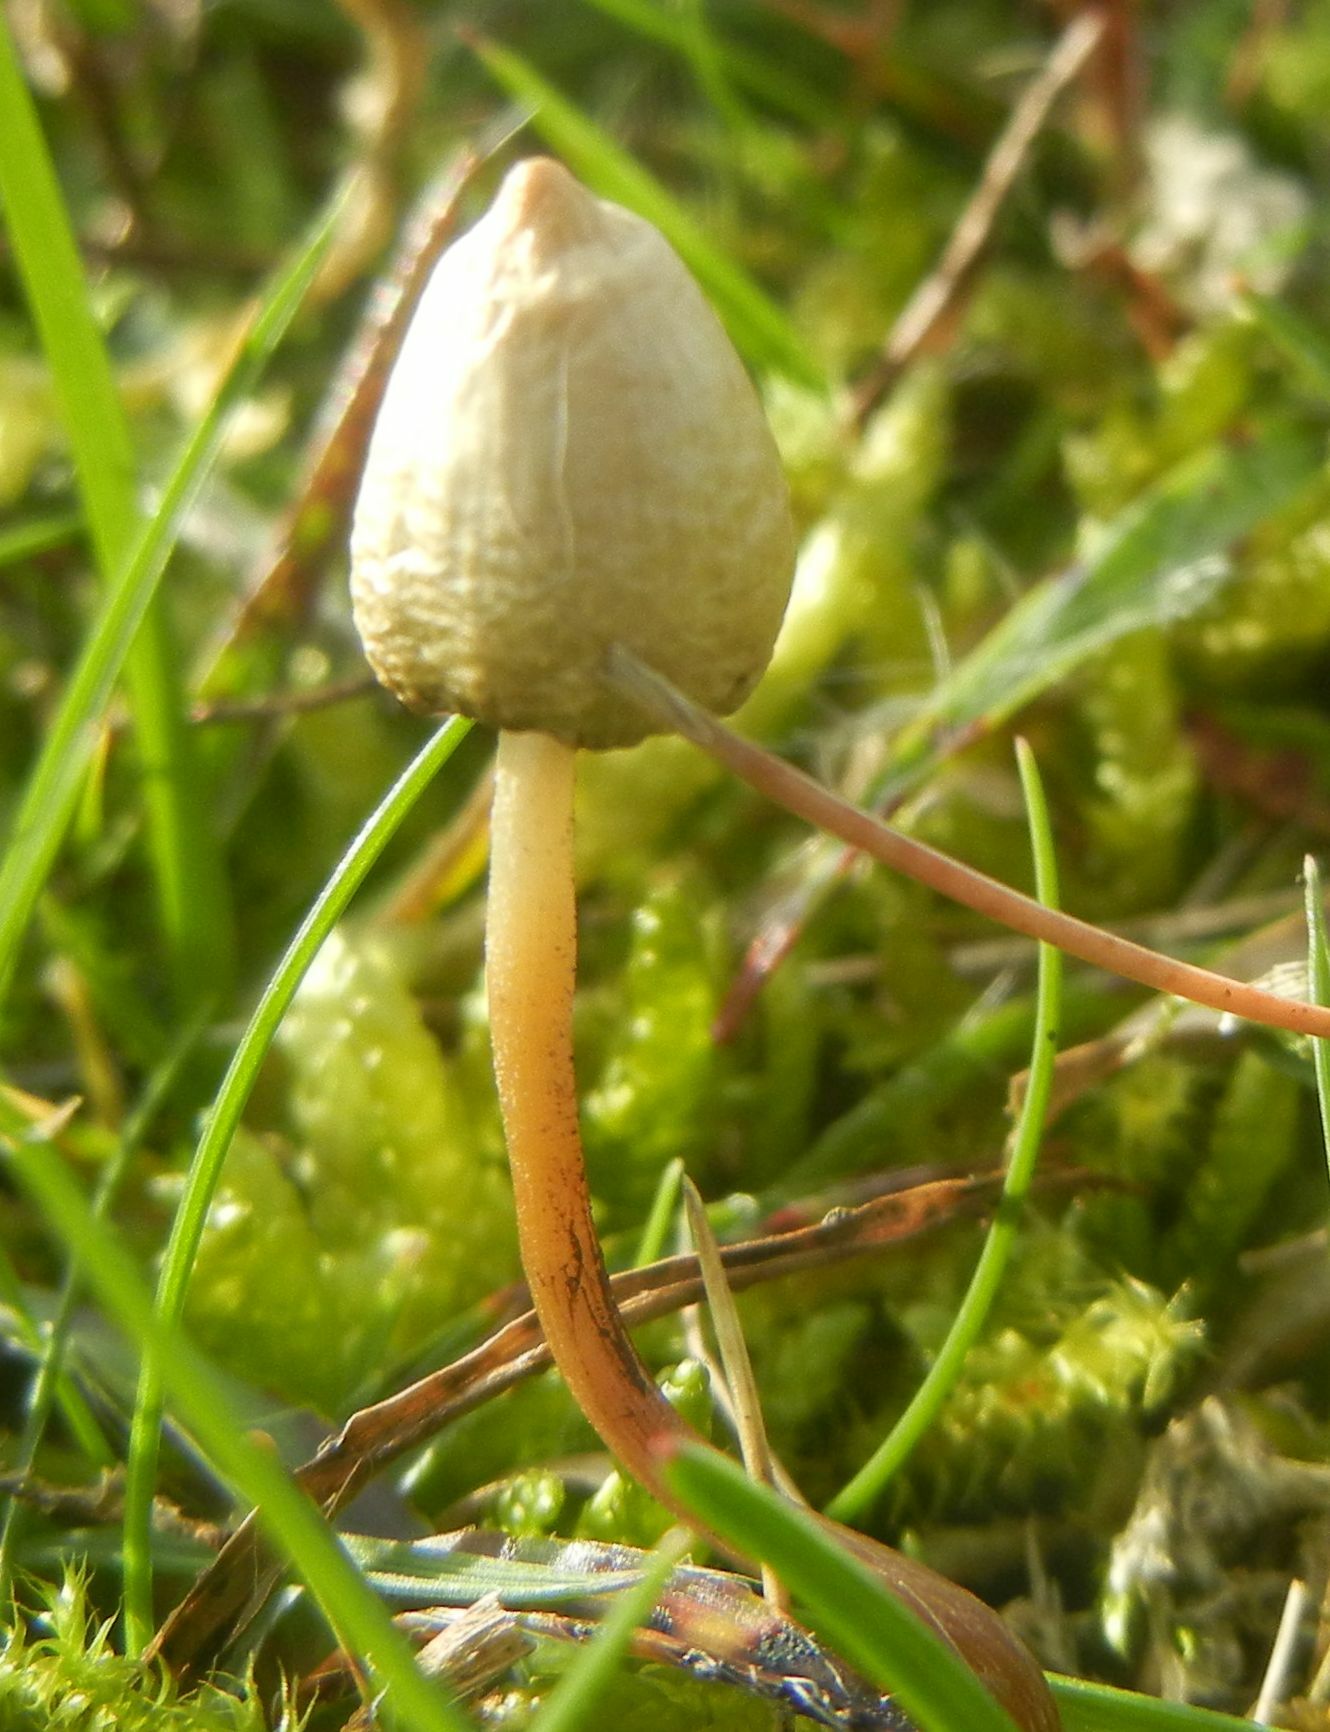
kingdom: Fungi
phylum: Basidiomycota
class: Agaricomycetes
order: Agaricales
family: Hymenogastraceae
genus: Psilocybe
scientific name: Psilocybe semilanceata
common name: Liberty cap
